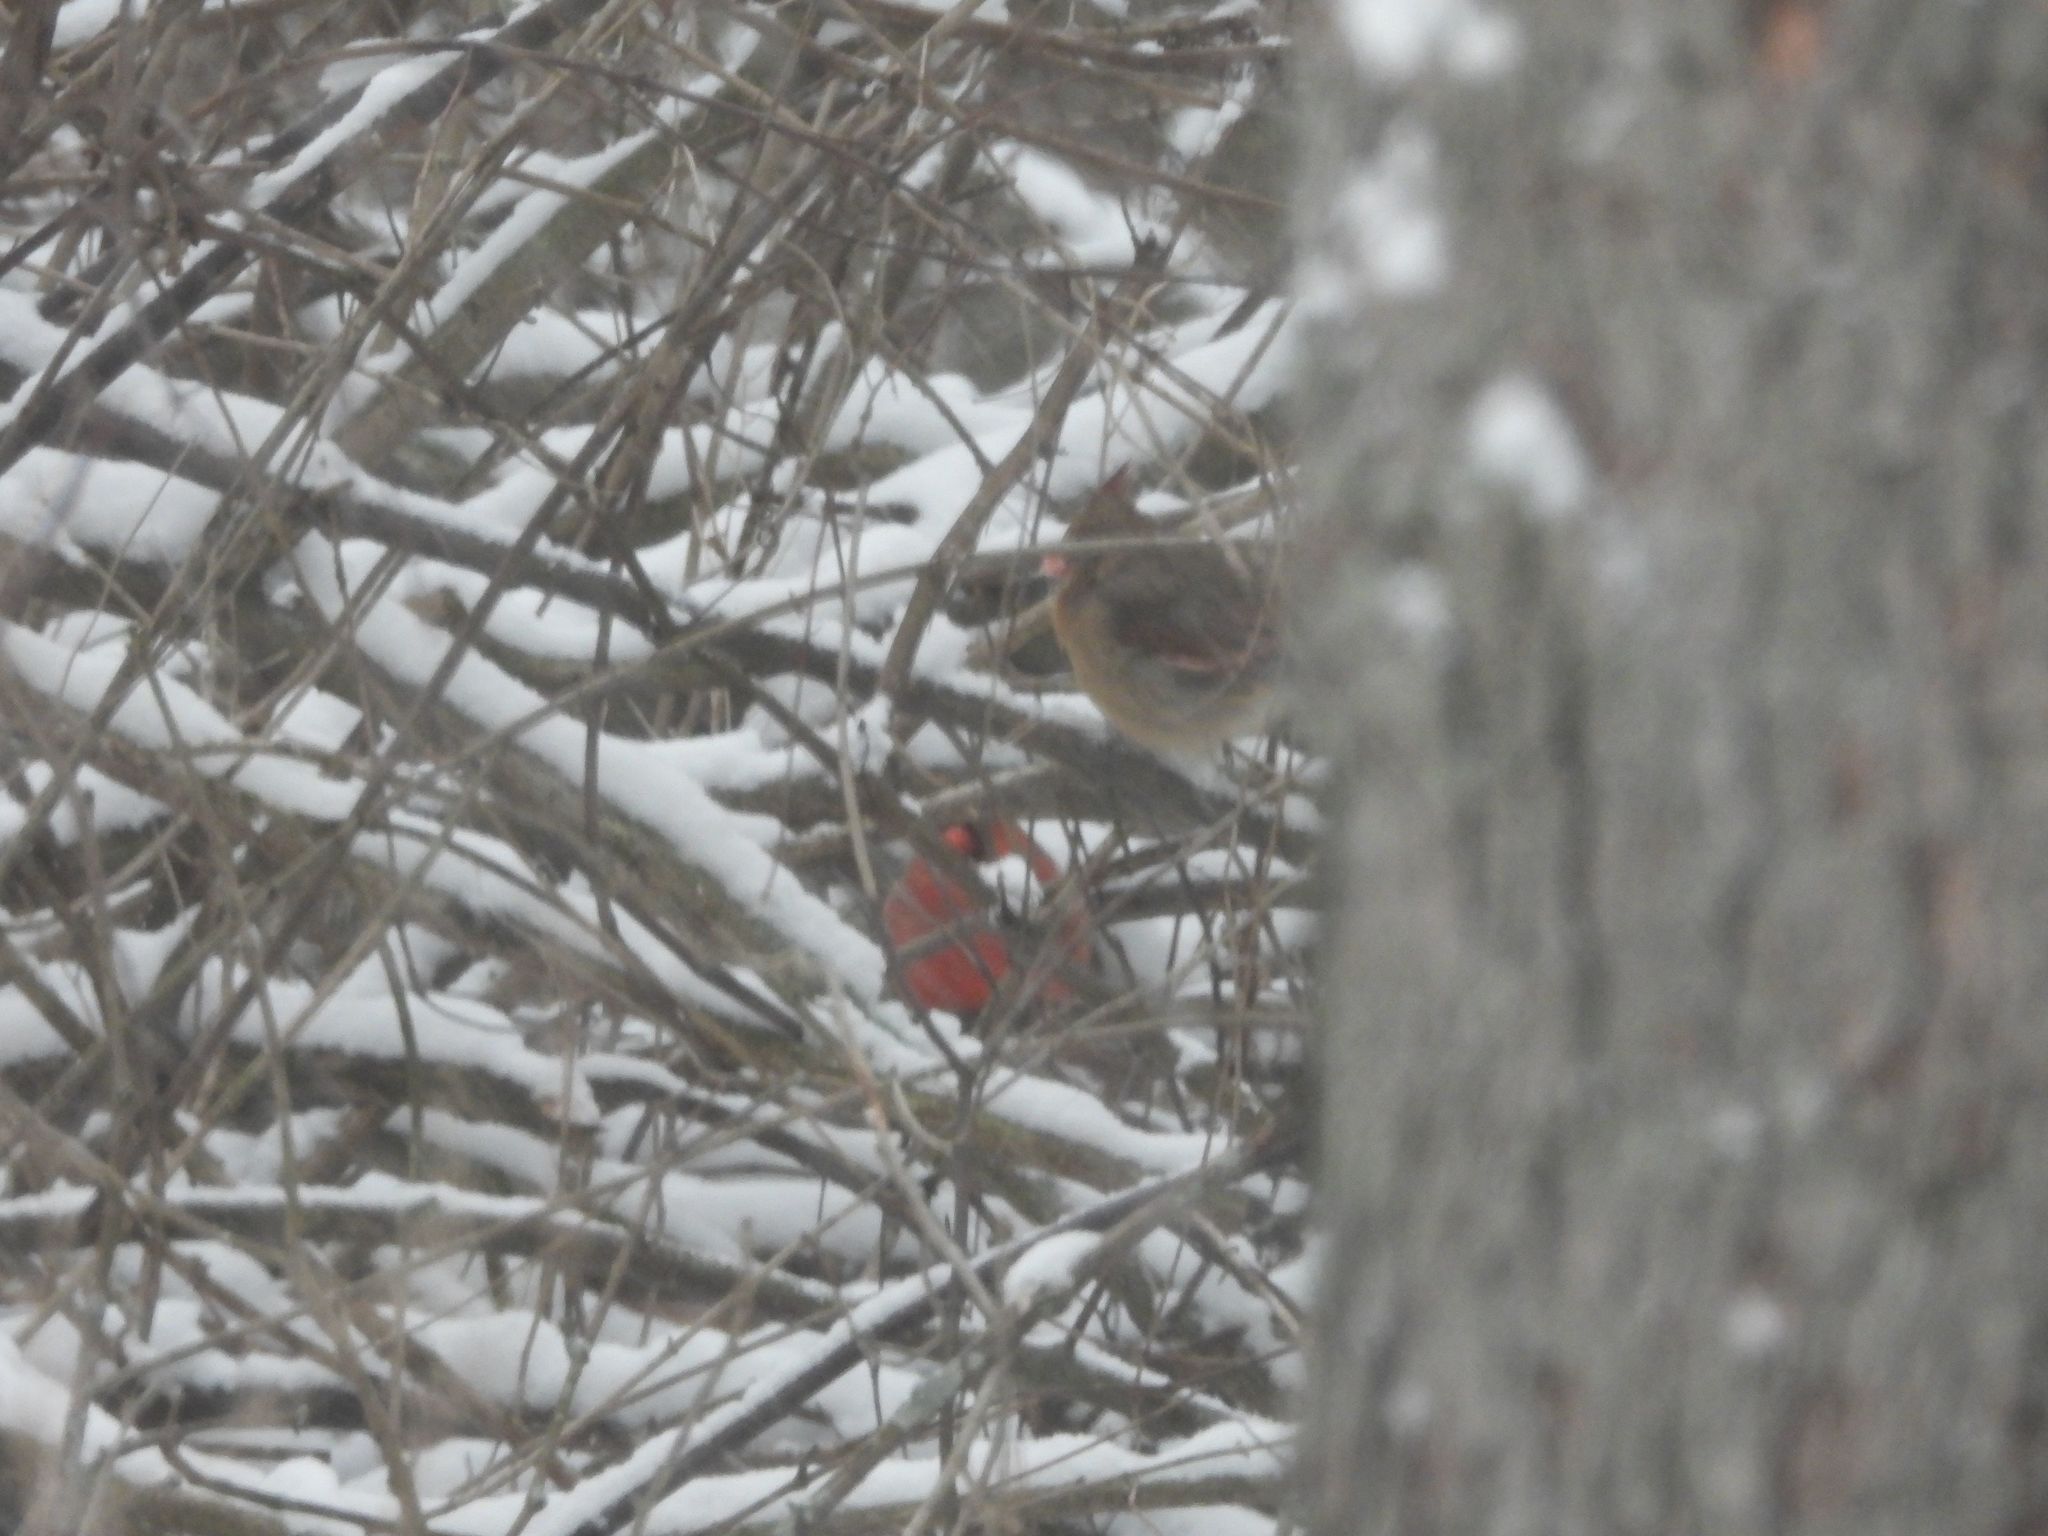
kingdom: Animalia
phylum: Chordata
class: Aves
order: Passeriformes
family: Cardinalidae
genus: Cardinalis
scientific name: Cardinalis cardinalis
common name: Northern cardinal
